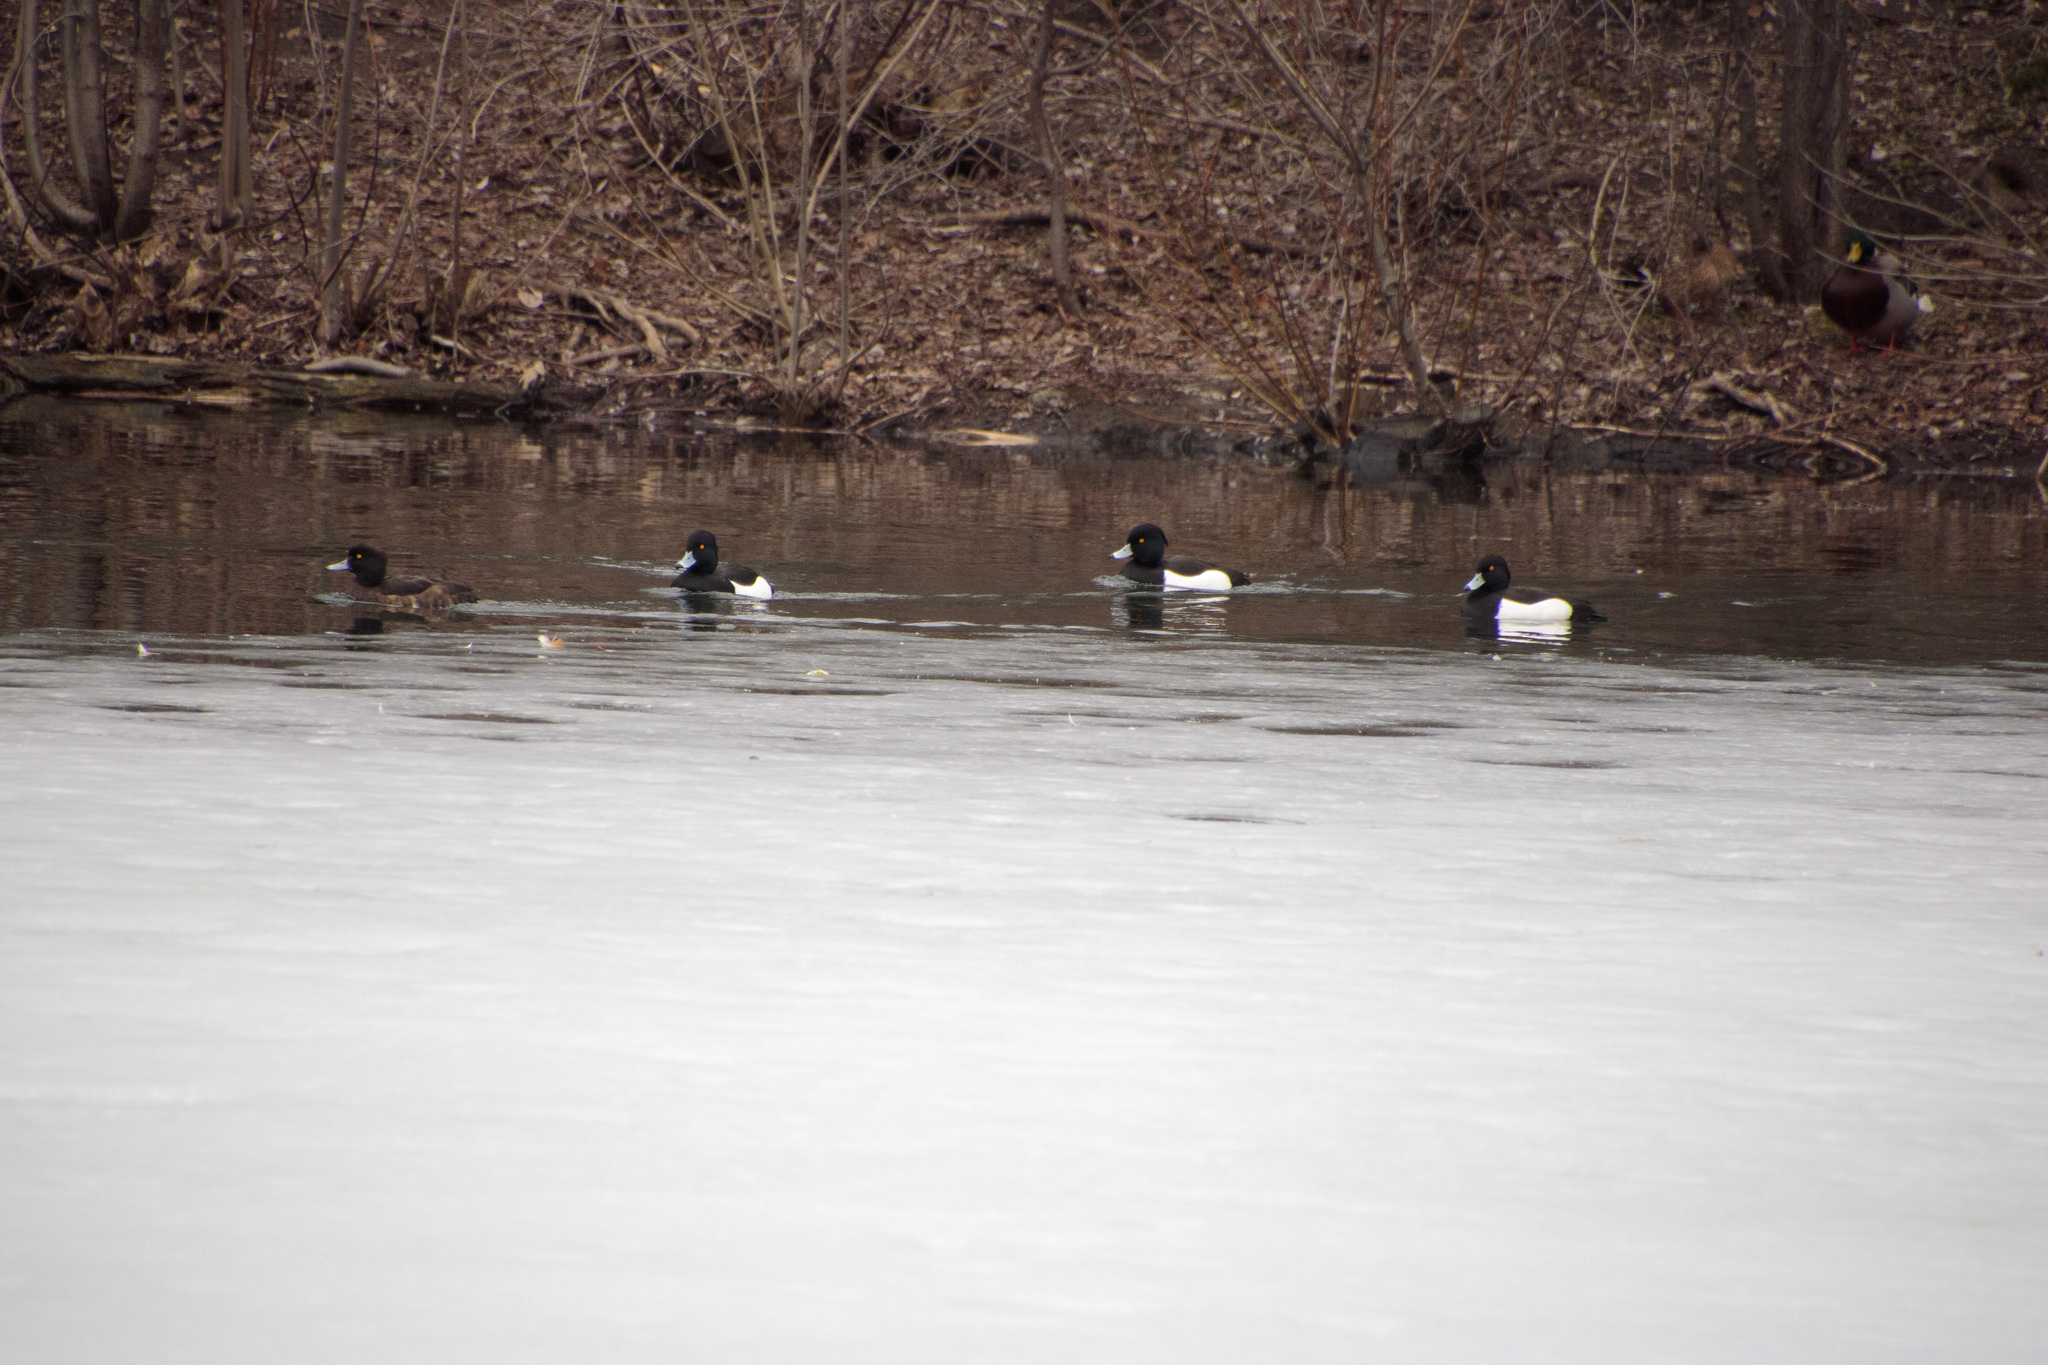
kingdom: Animalia
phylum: Chordata
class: Aves
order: Anseriformes
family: Anatidae
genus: Aythya
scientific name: Aythya fuligula
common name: Tufted duck
